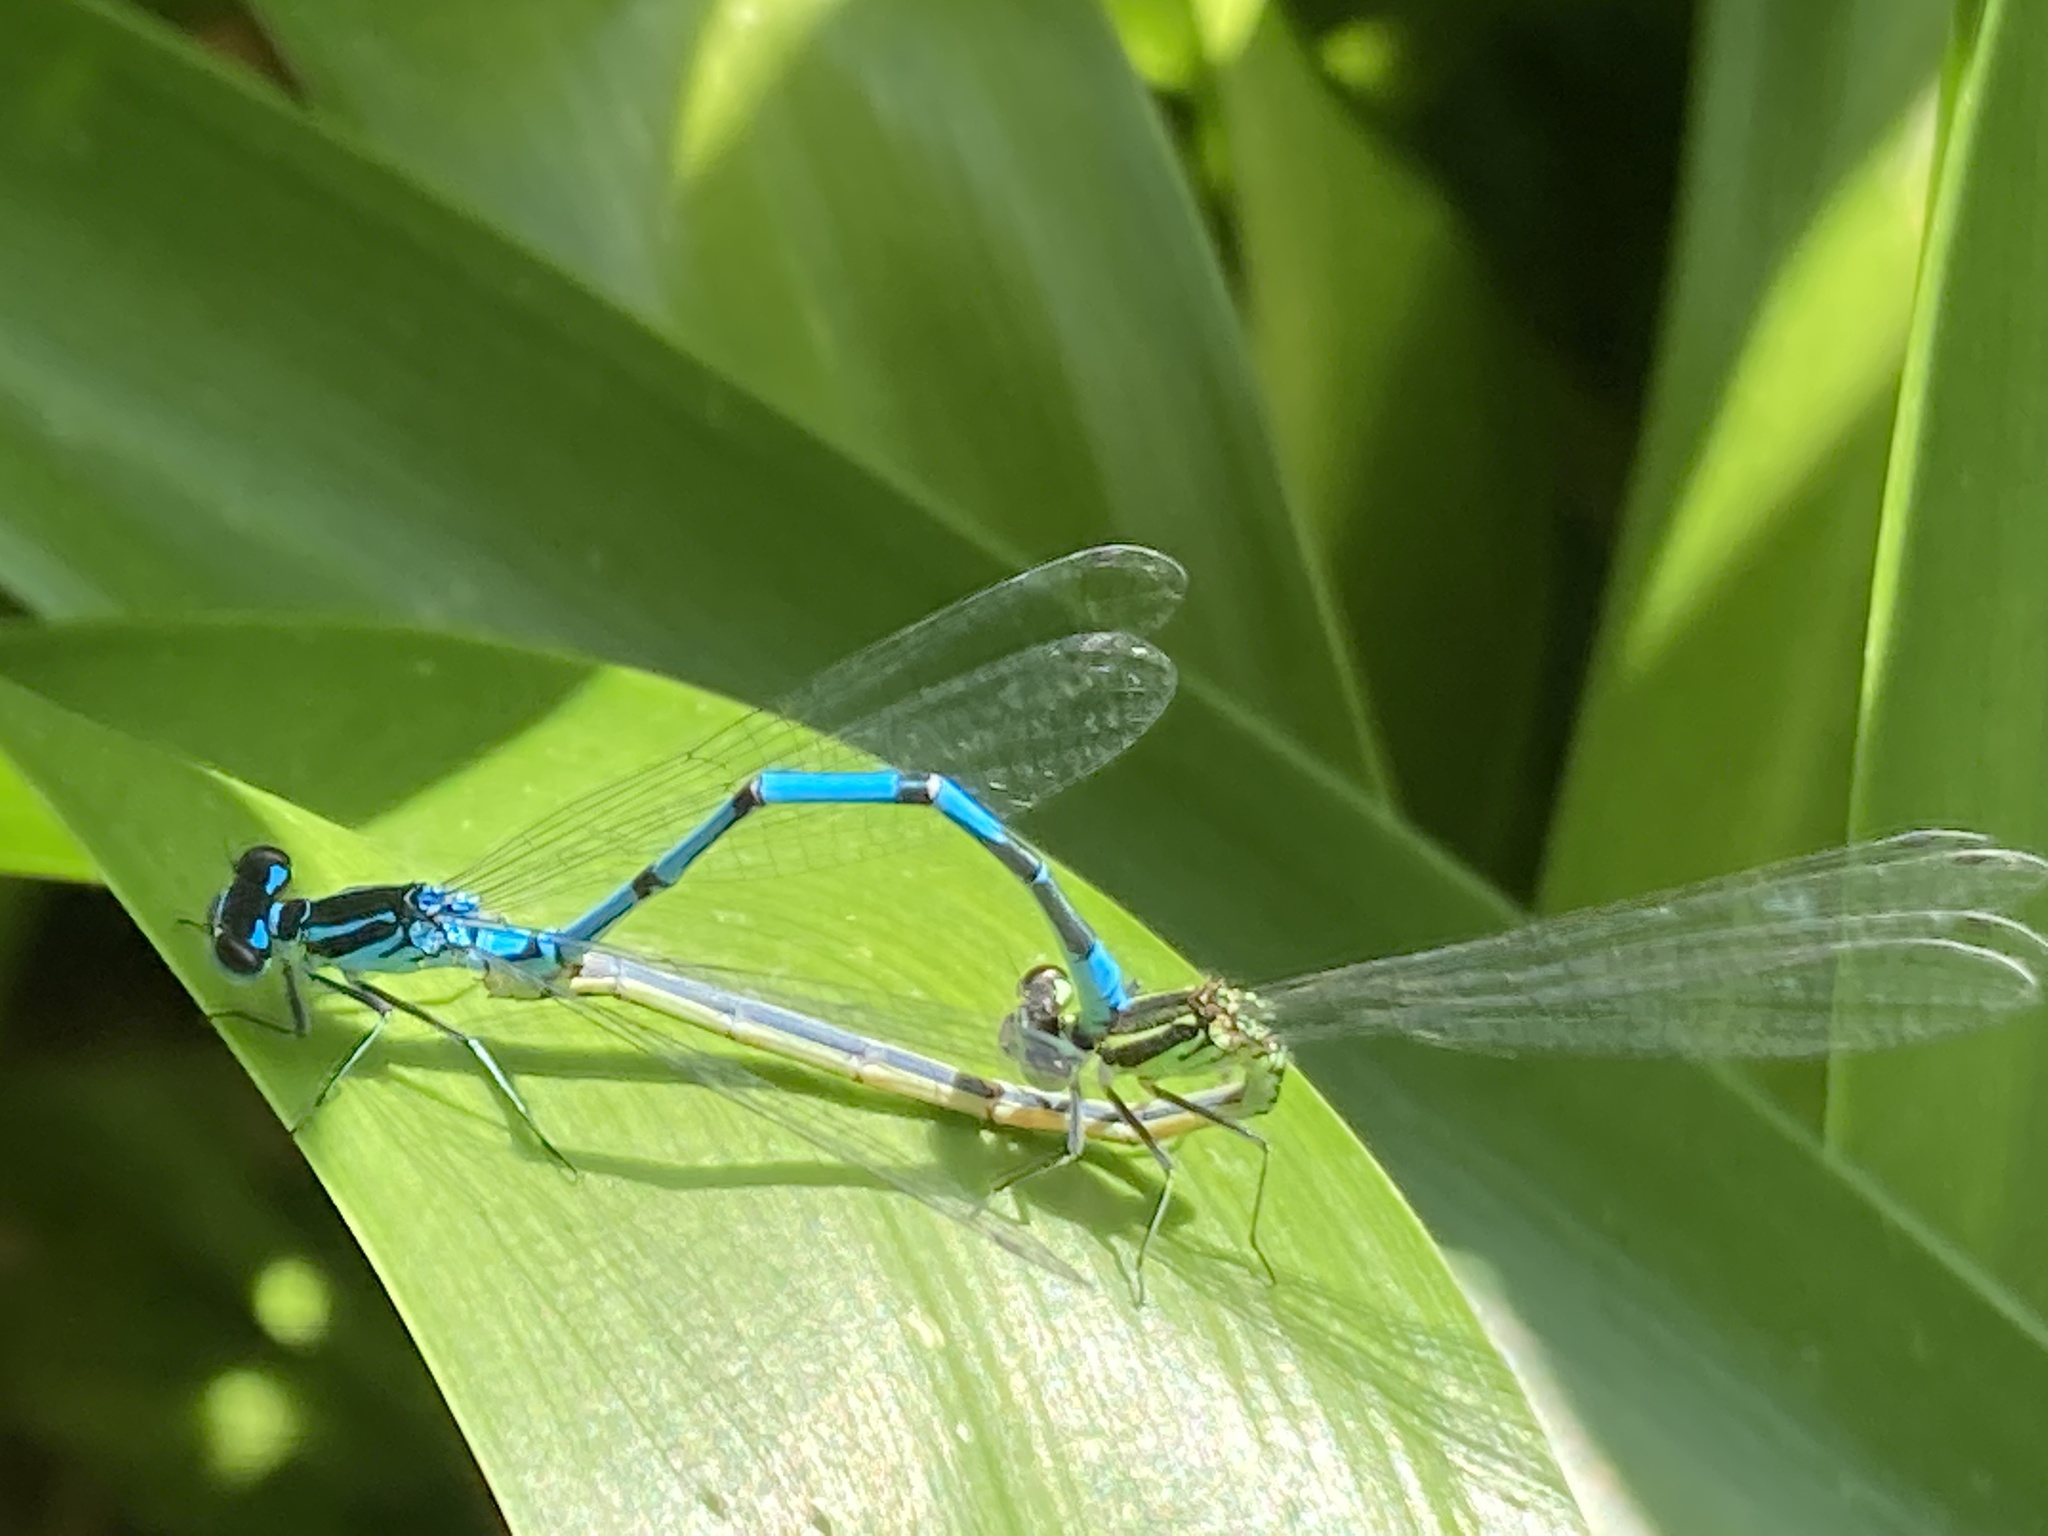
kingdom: Animalia
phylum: Arthropoda
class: Insecta
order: Odonata
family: Coenagrionidae
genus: Coenagrion
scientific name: Coenagrion puella
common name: Azure damselfly
